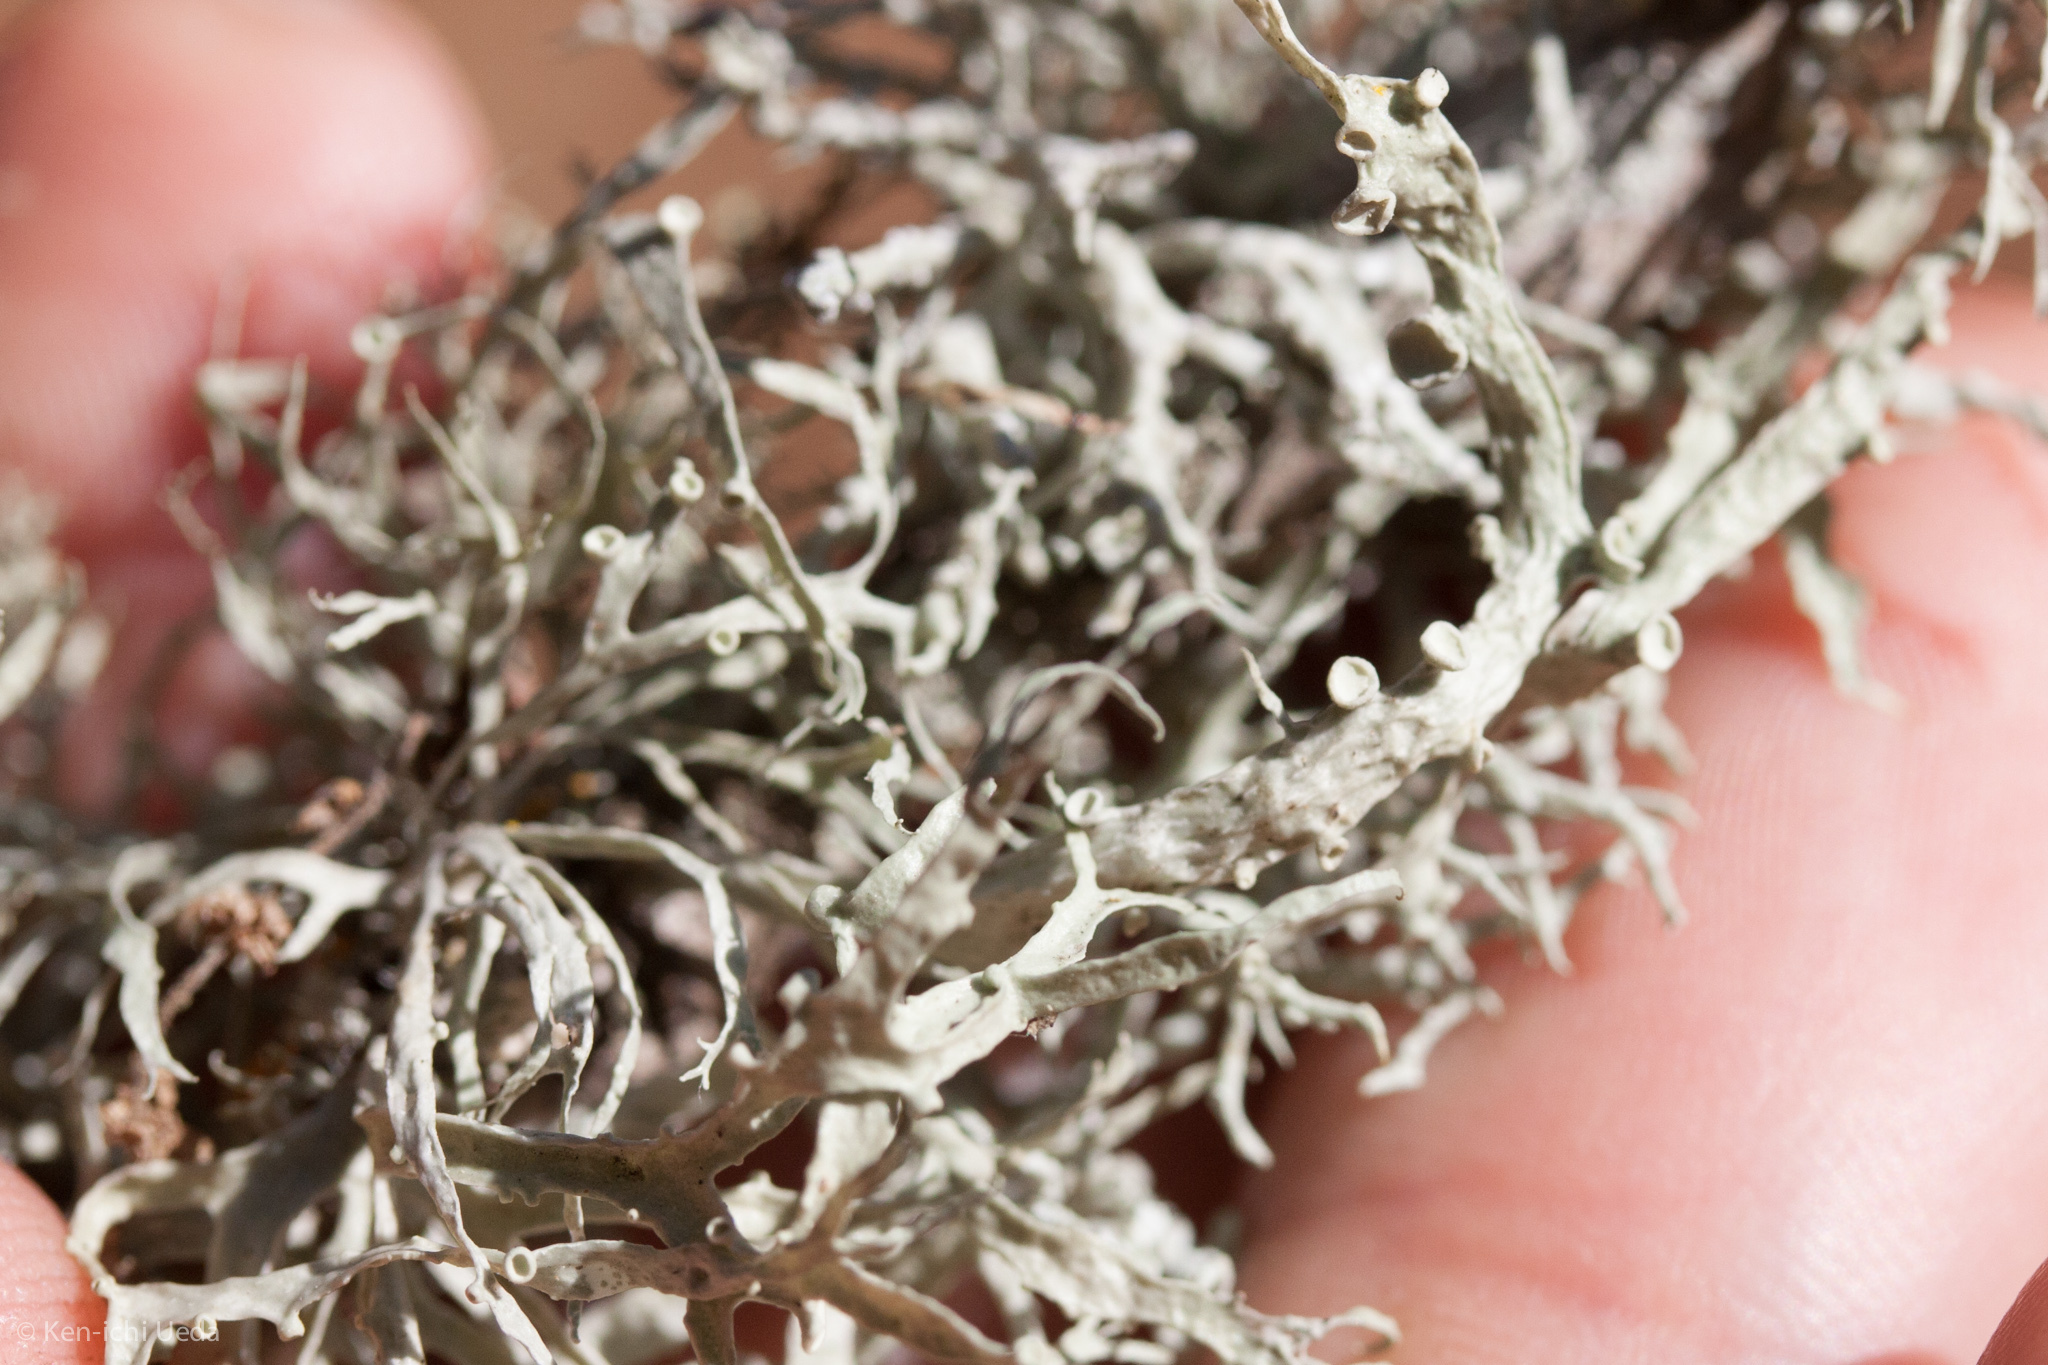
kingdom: Fungi
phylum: Ascomycota
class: Lecanoromycetes
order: Lecanorales
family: Ramalinaceae
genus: Ramalina
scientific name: Ramalina leptocarpha
